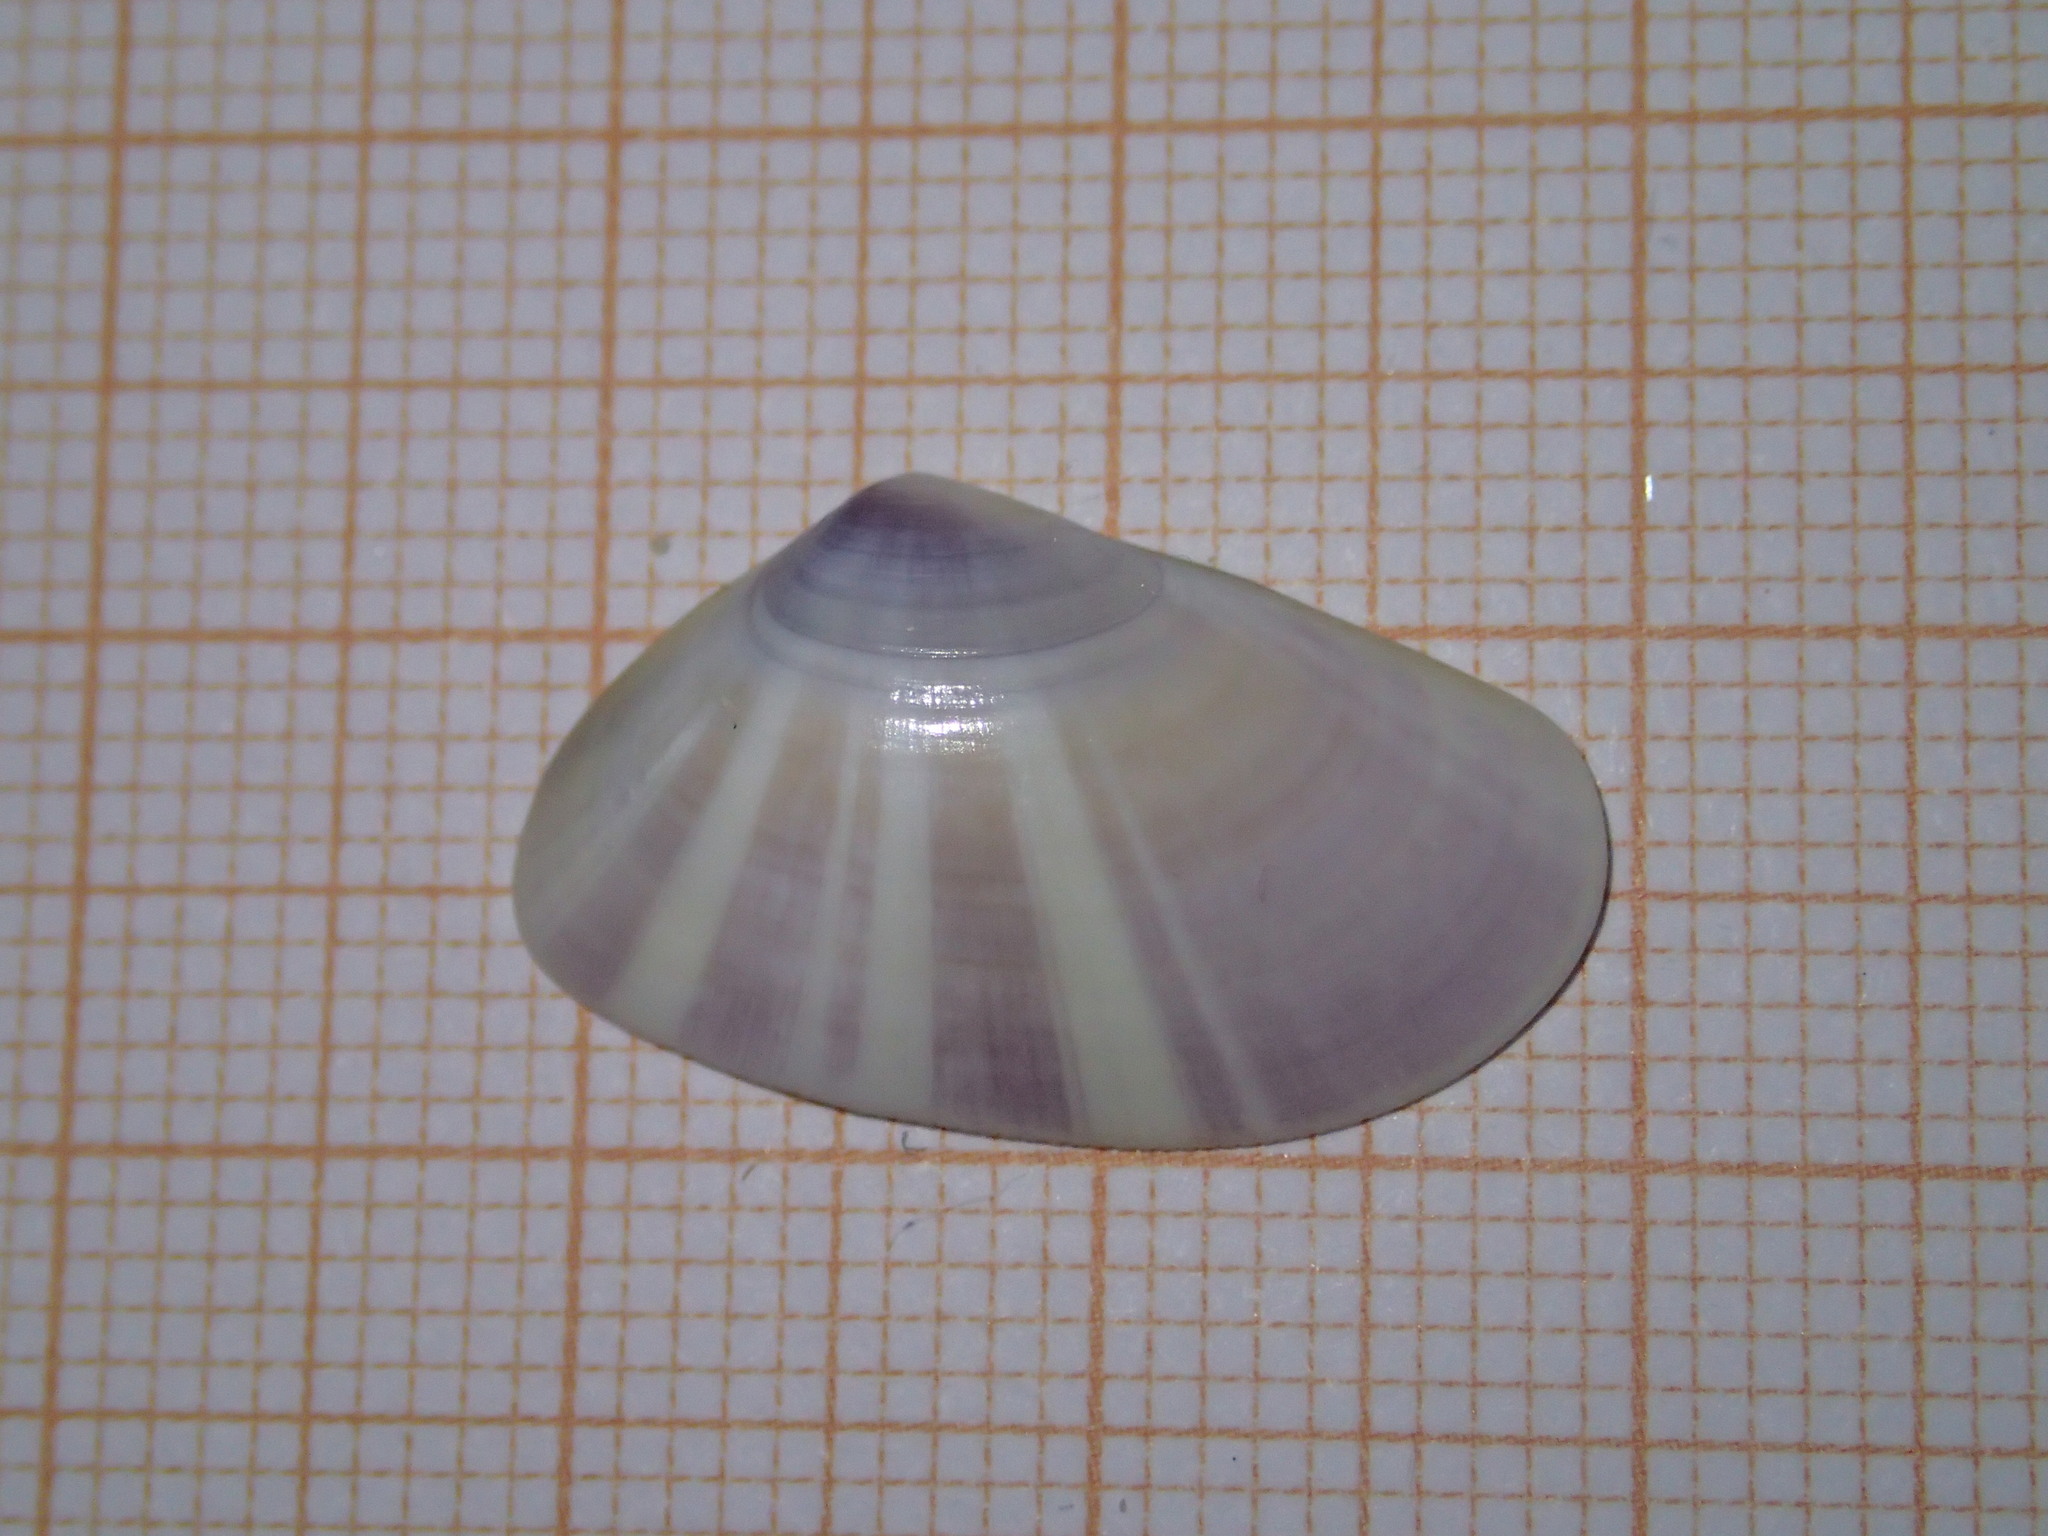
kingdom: Animalia
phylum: Mollusca
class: Bivalvia
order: Cardiida
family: Donacidae
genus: Donax
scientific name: Donax trunculus
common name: Truncate donax
